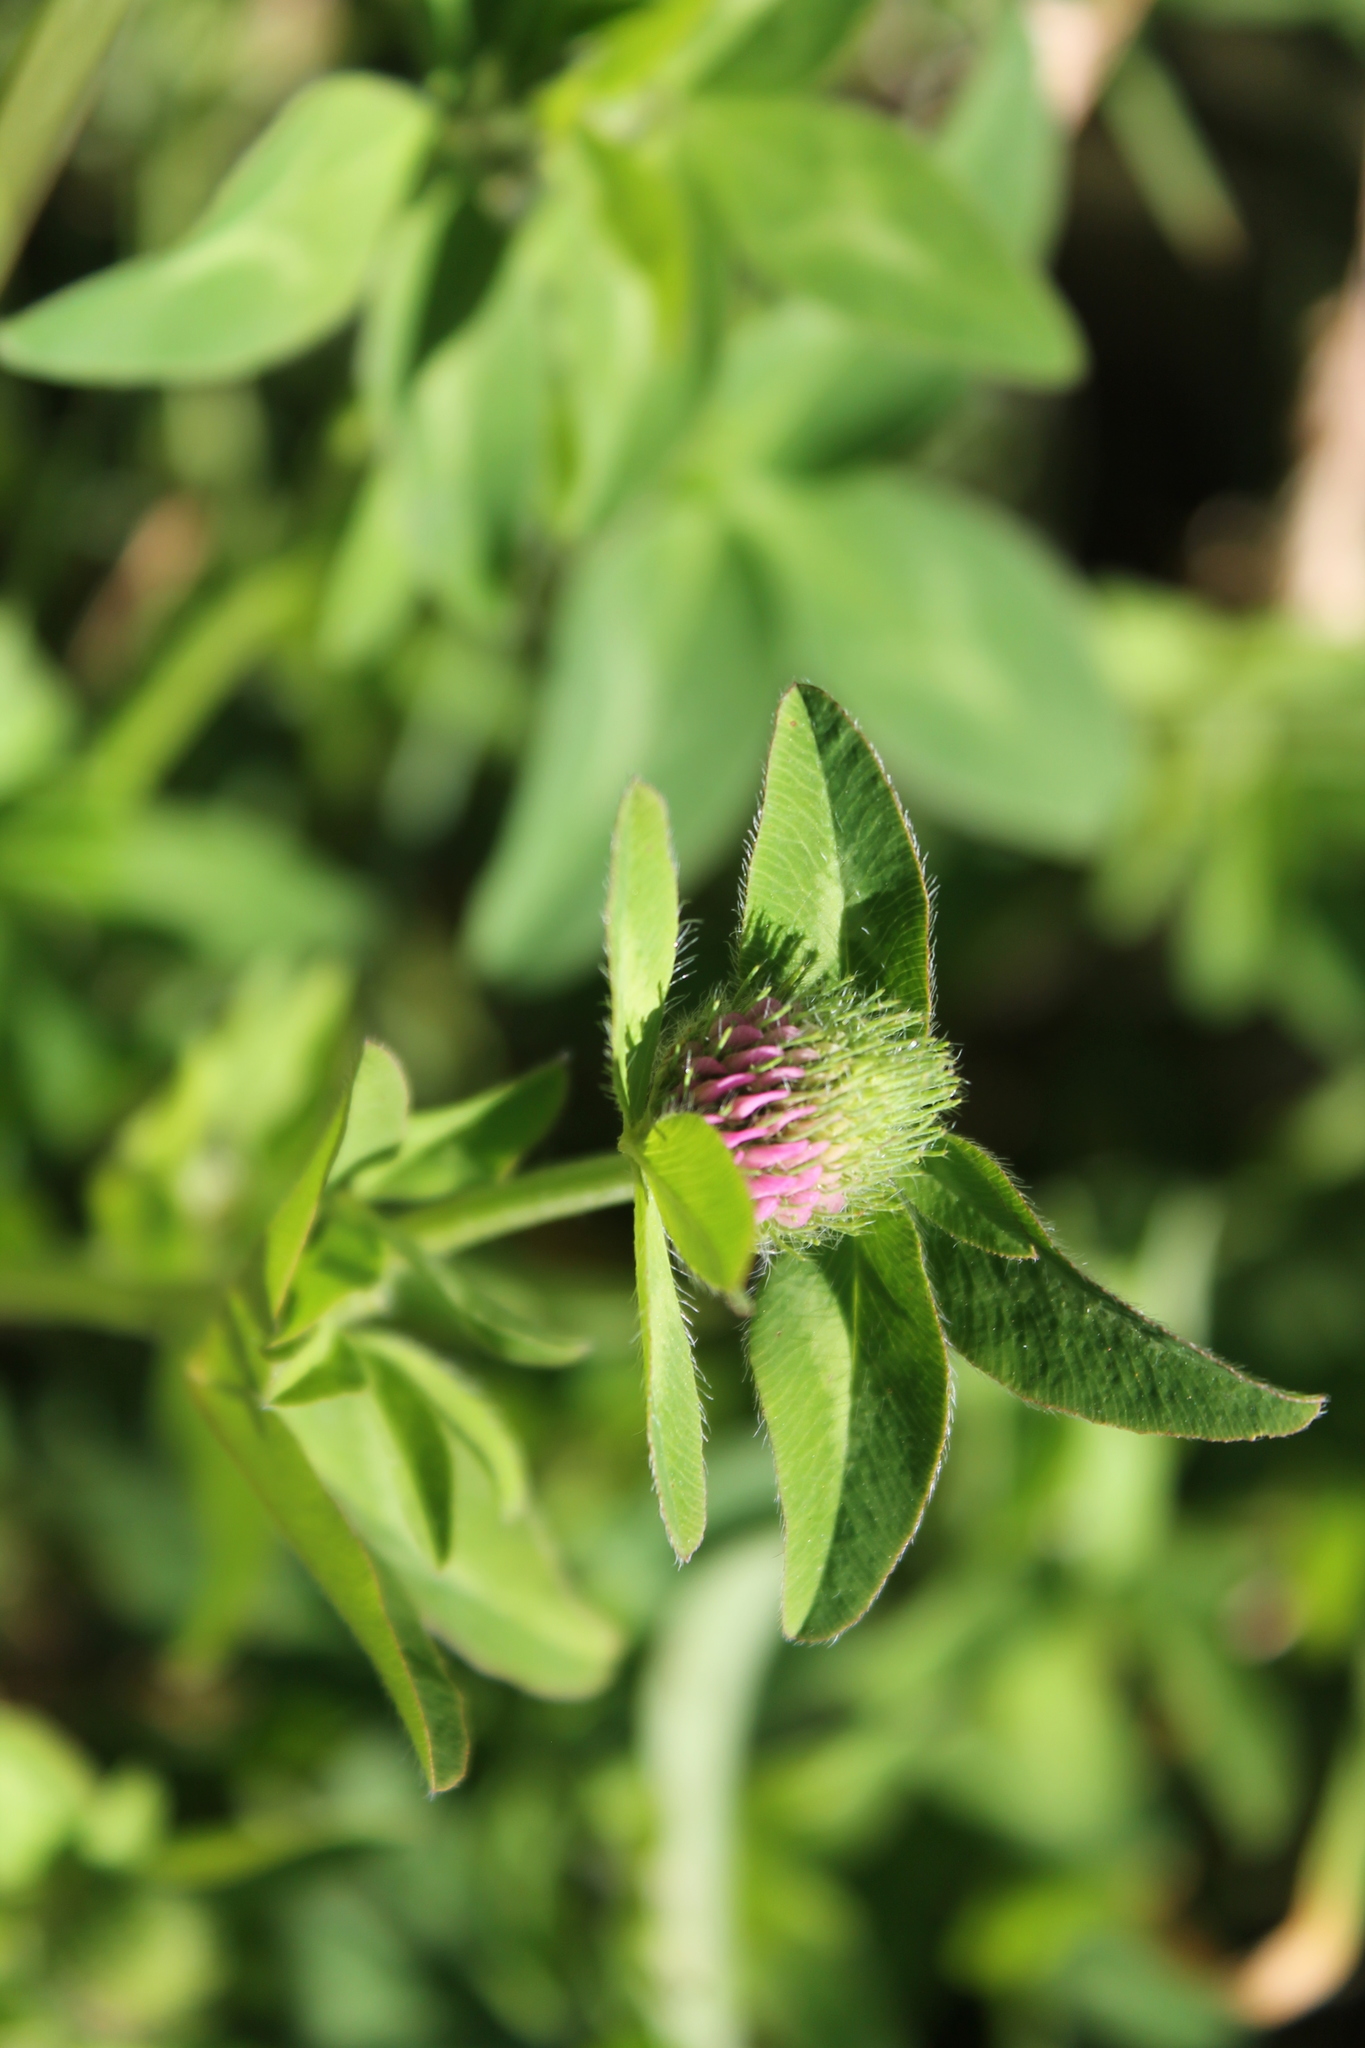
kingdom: Plantae
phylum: Tracheophyta
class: Magnoliopsida
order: Fabales
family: Fabaceae
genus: Trifolium
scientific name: Trifolium pratense
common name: Red clover
